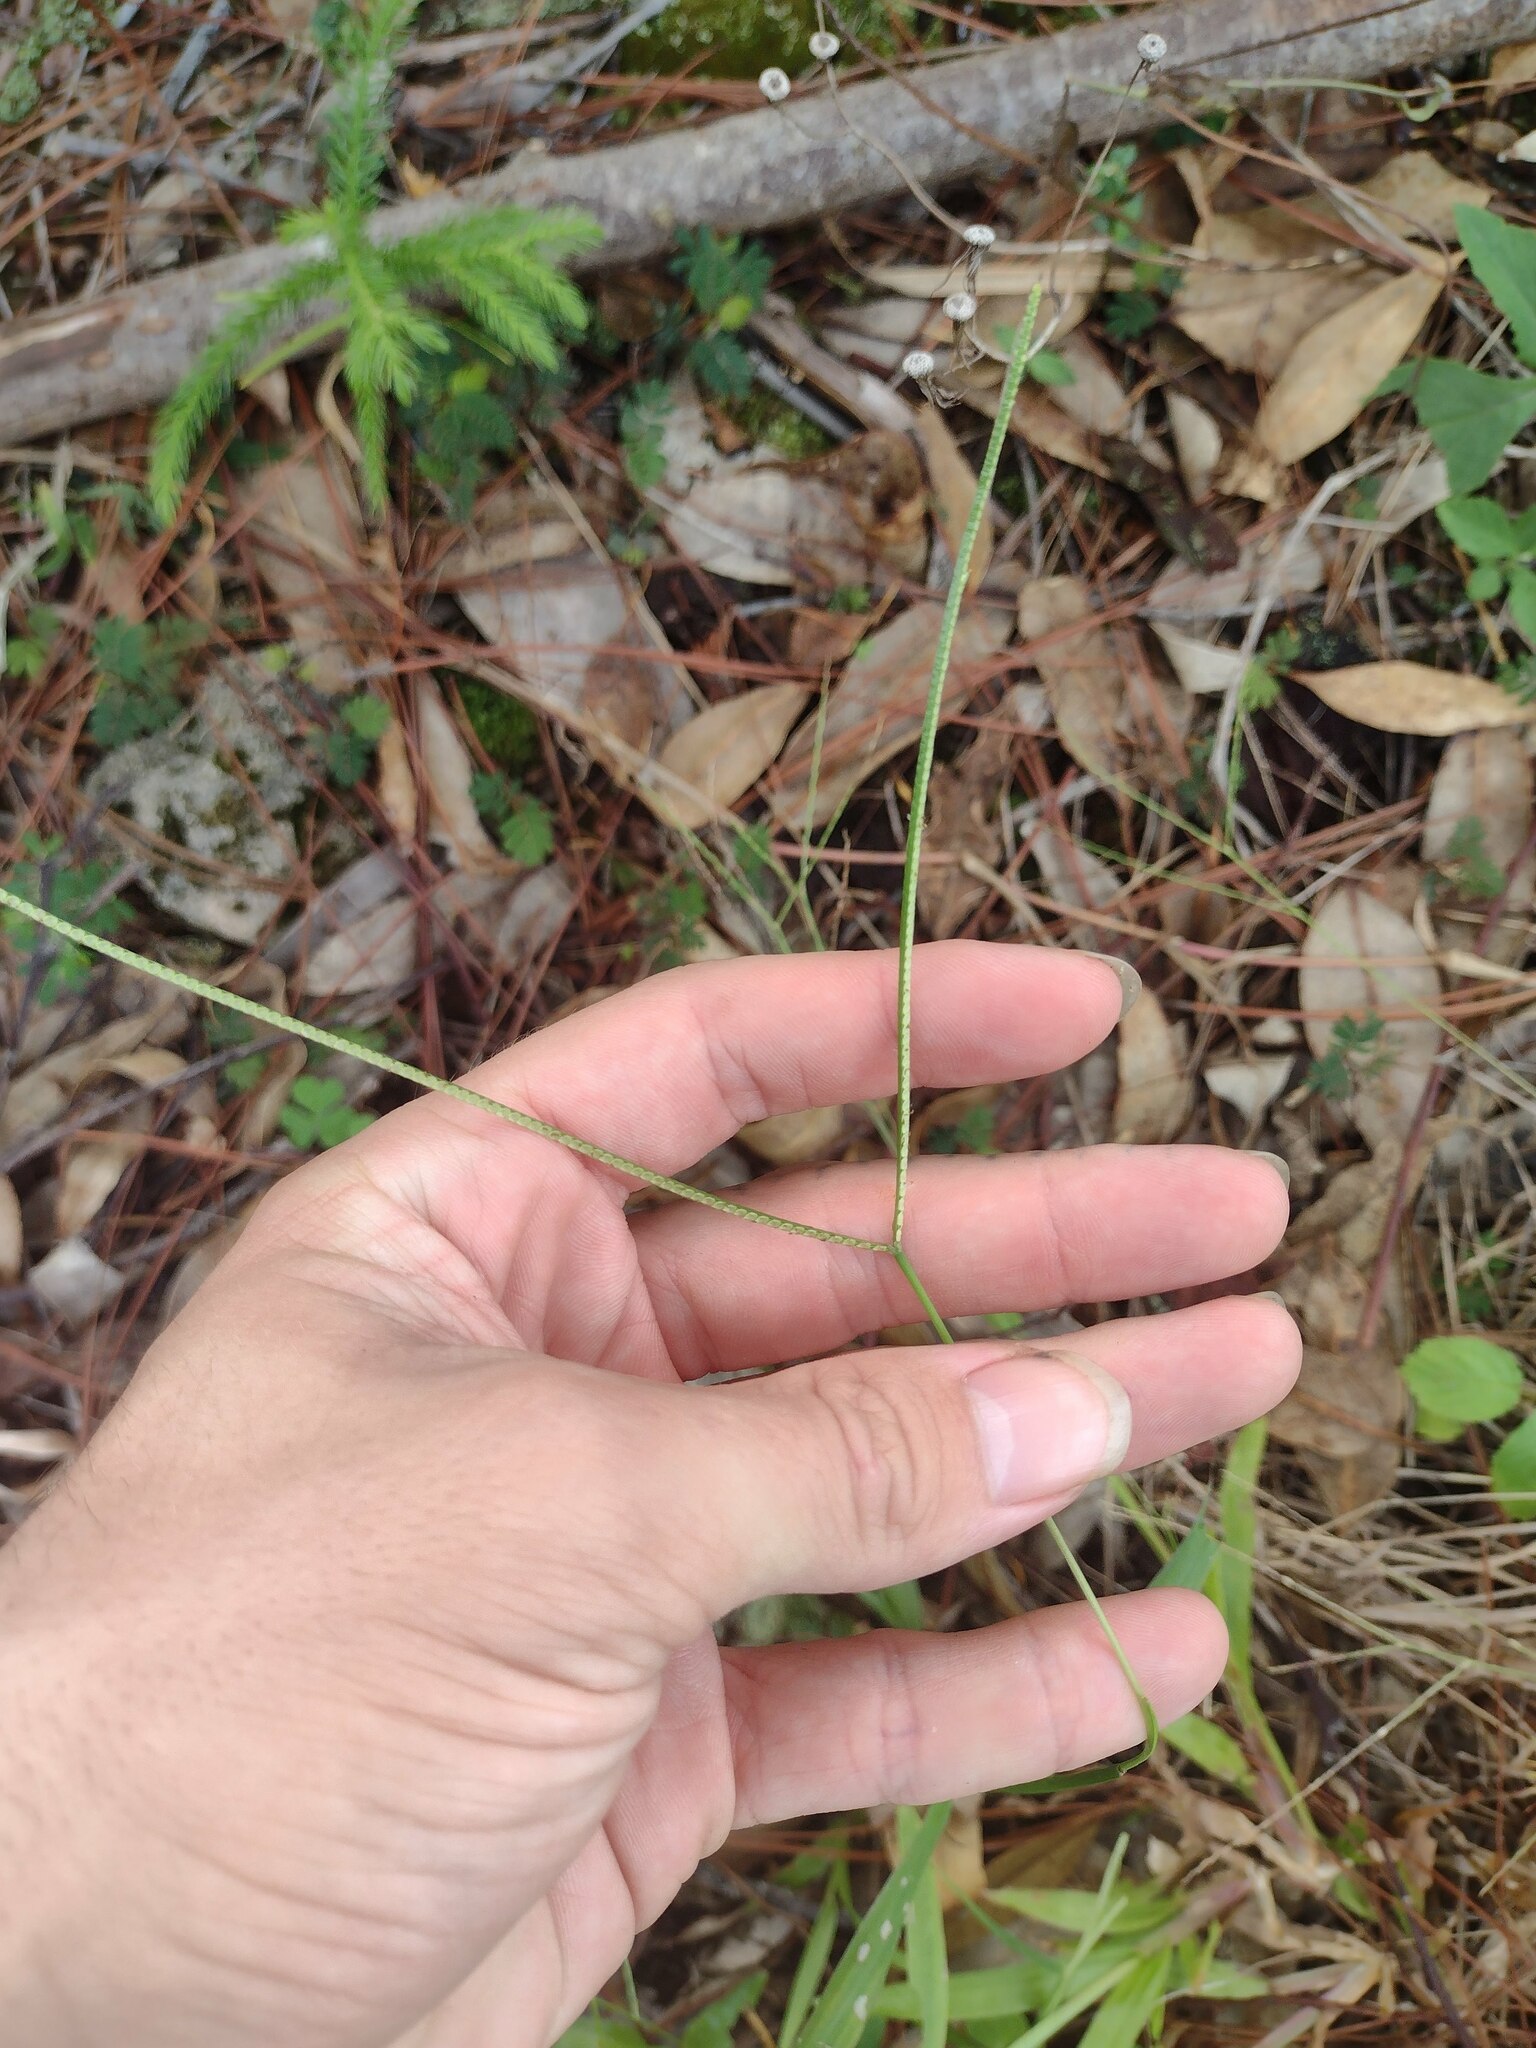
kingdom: Plantae
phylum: Tracheophyta
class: Liliopsida
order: Poales
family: Poaceae
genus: Paspalum
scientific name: Paspalum conjugatum
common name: Hilograss
